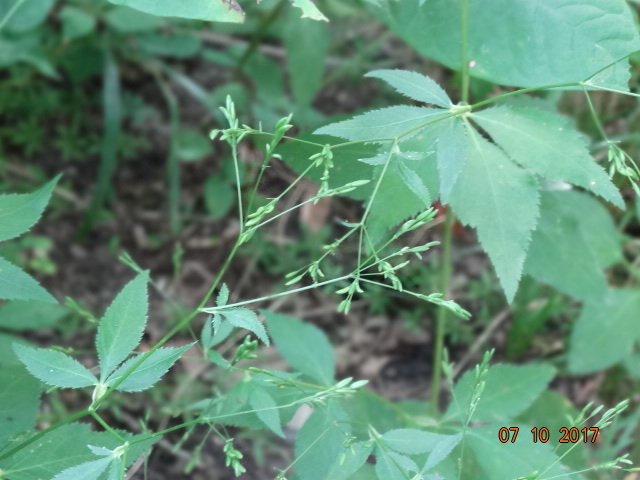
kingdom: Plantae
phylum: Tracheophyta
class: Magnoliopsida
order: Apiales
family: Apiaceae
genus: Cryptotaenia
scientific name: Cryptotaenia canadensis
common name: Honewort
